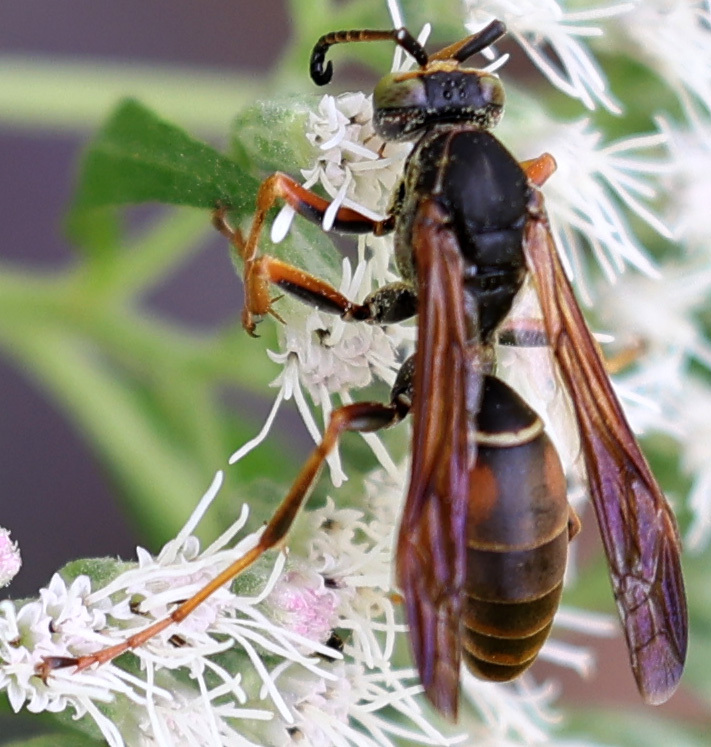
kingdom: Animalia
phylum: Arthropoda
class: Insecta
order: Hymenoptera
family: Eumenidae
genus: Polistes
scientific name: Polistes fuscatus
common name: Dark paper wasp
